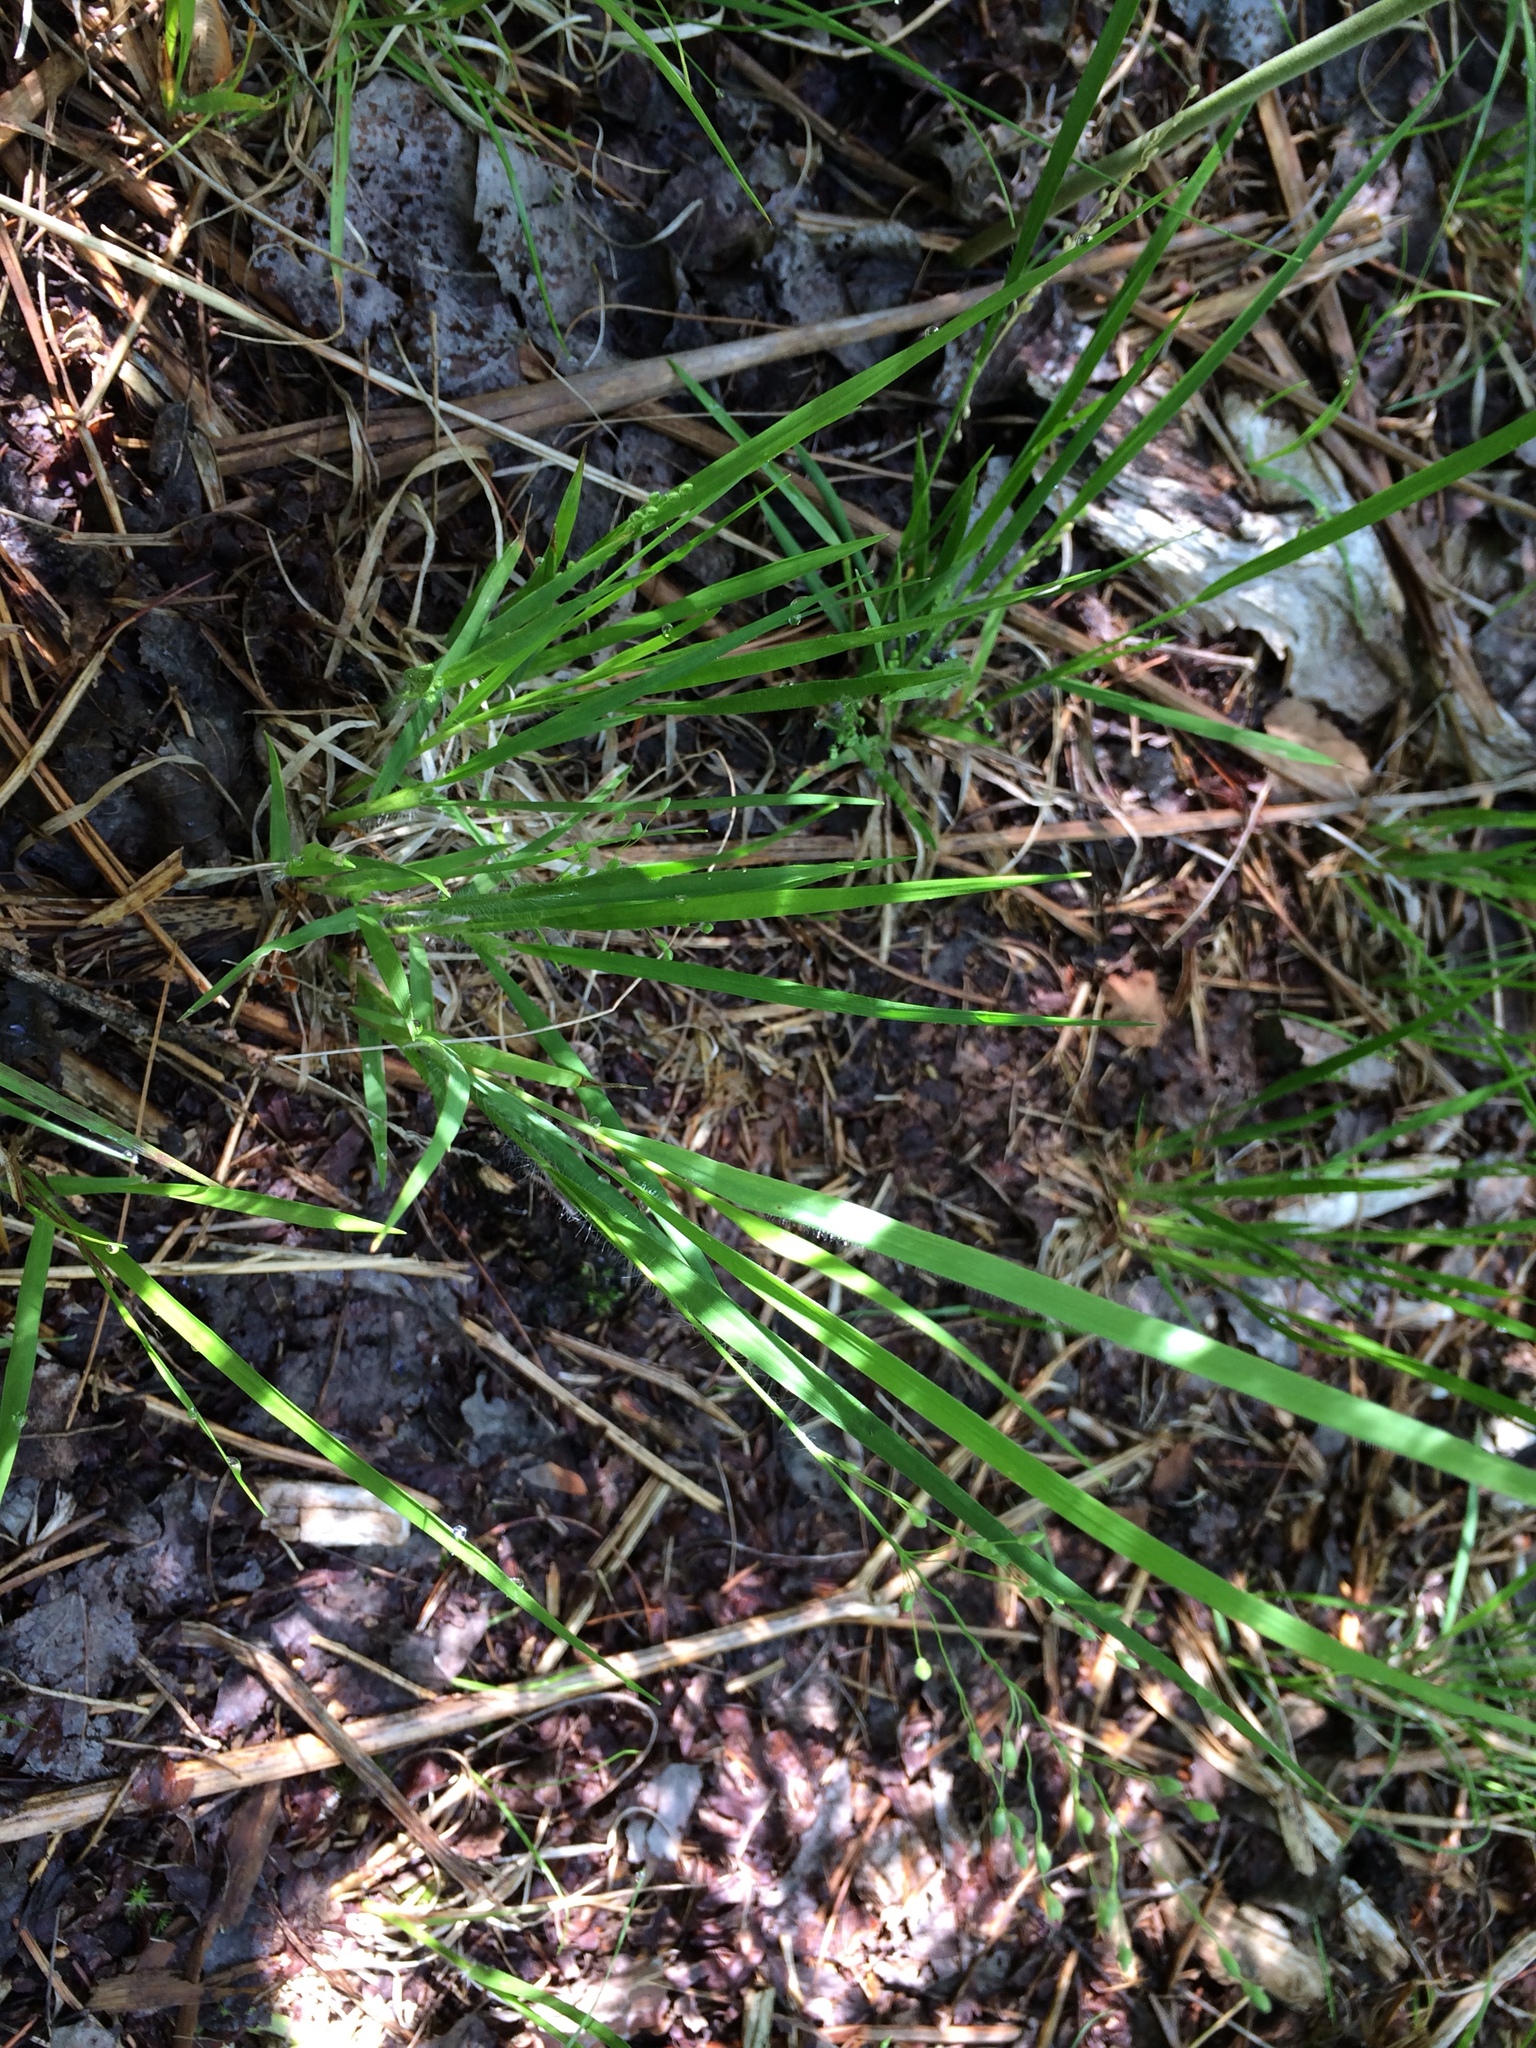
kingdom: Plantae
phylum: Tracheophyta
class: Liliopsida
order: Poales
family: Poaceae
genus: Dichanthelium
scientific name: Dichanthelium linearifolium
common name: Linear-leaved panicgrass
